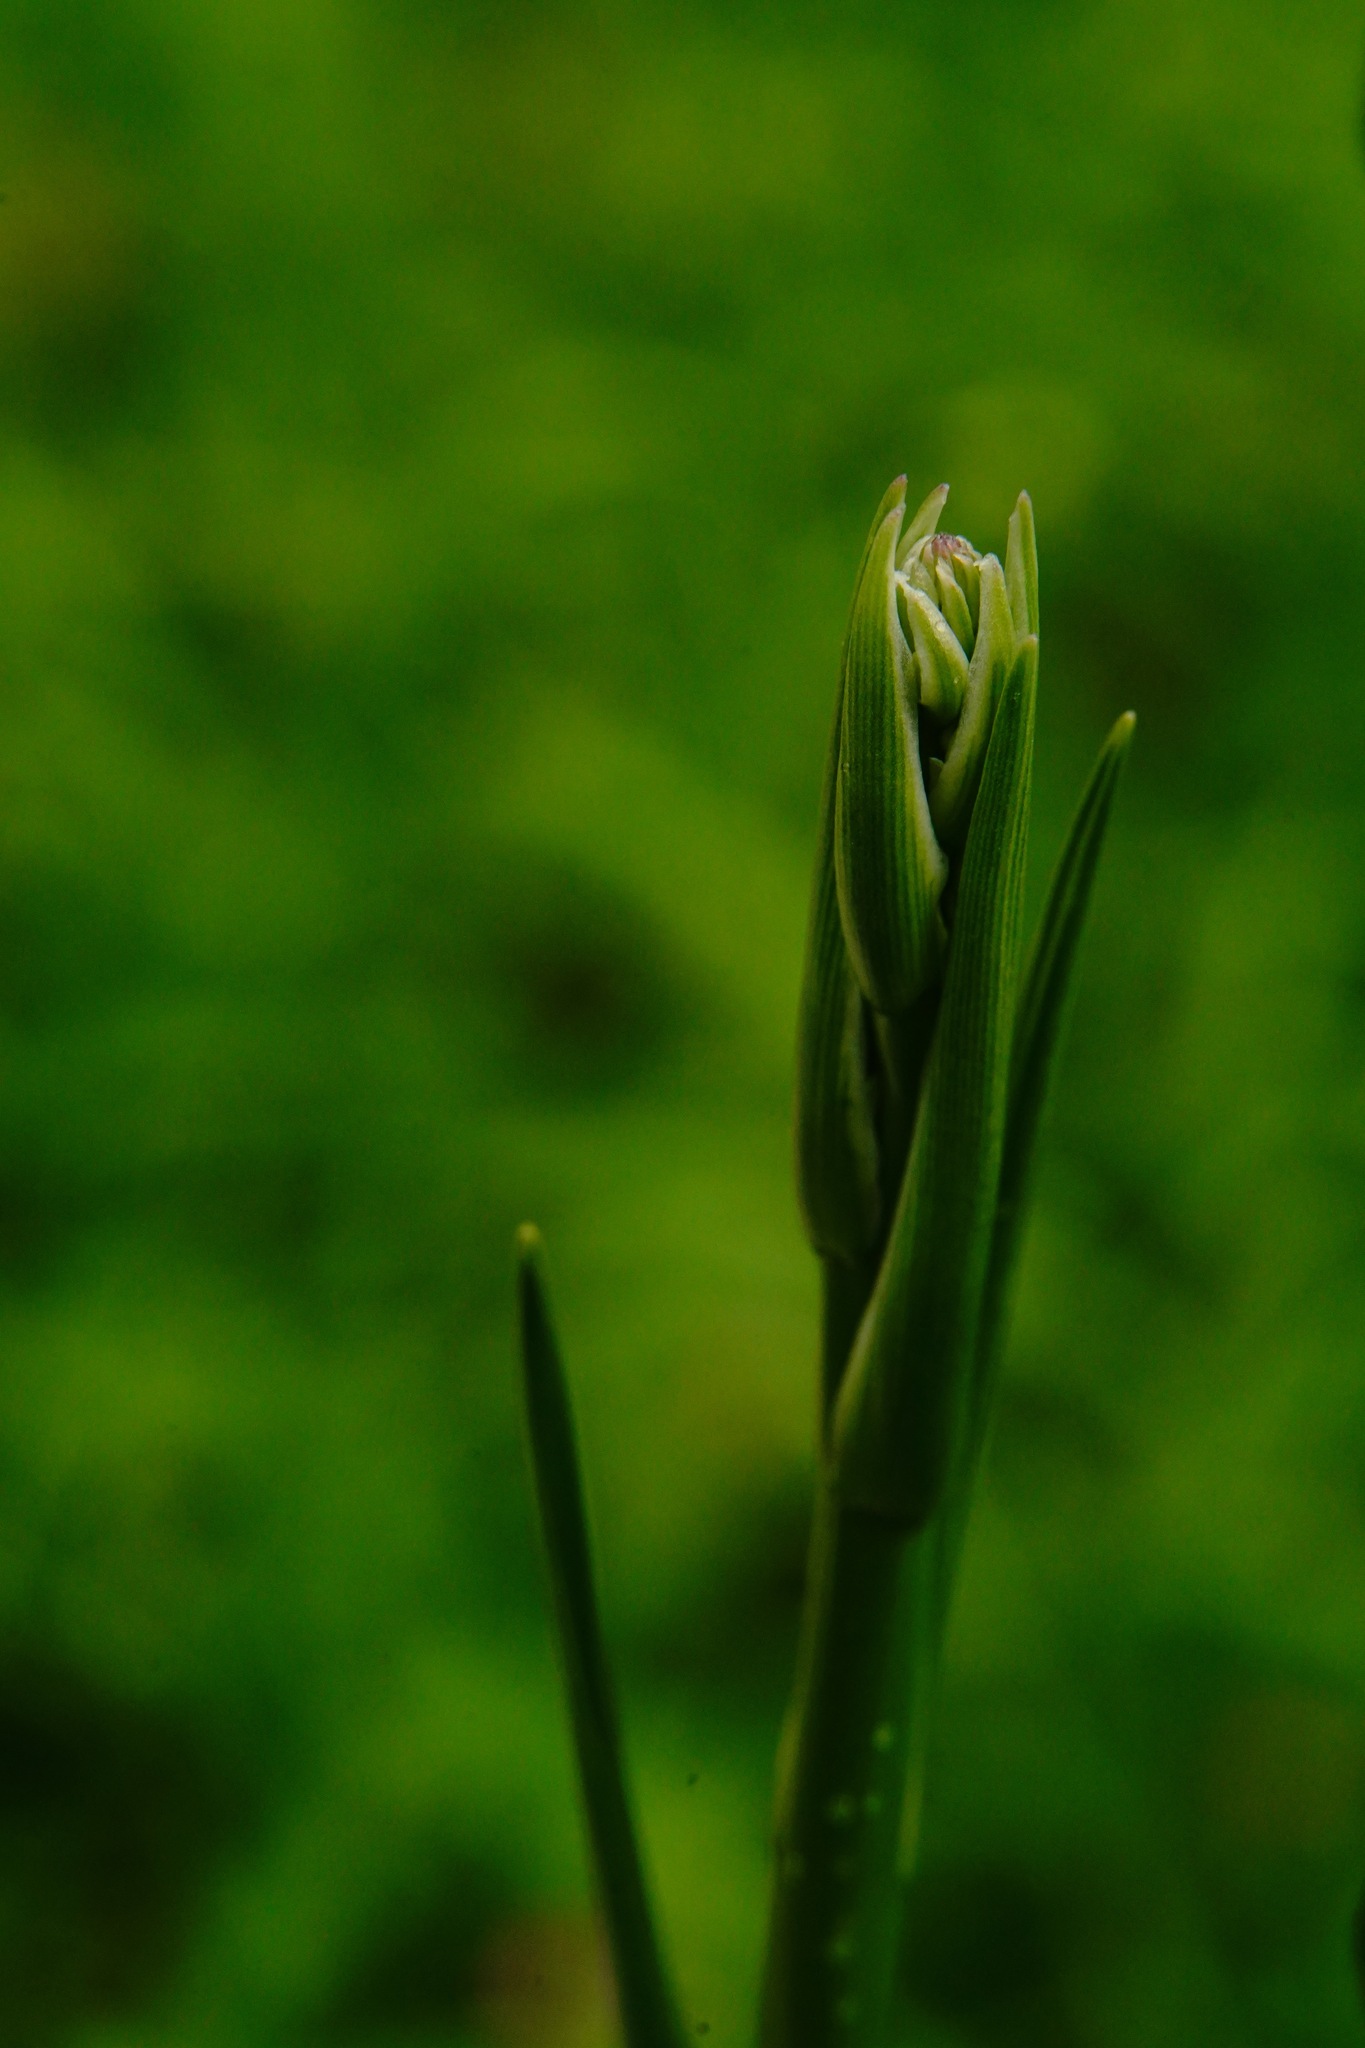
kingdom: Plantae
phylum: Tracheophyta
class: Liliopsida
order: Asparagales
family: Asparagaceae
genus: Chlorogalum
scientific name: Chlorogalum pomeridianum
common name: Amole
